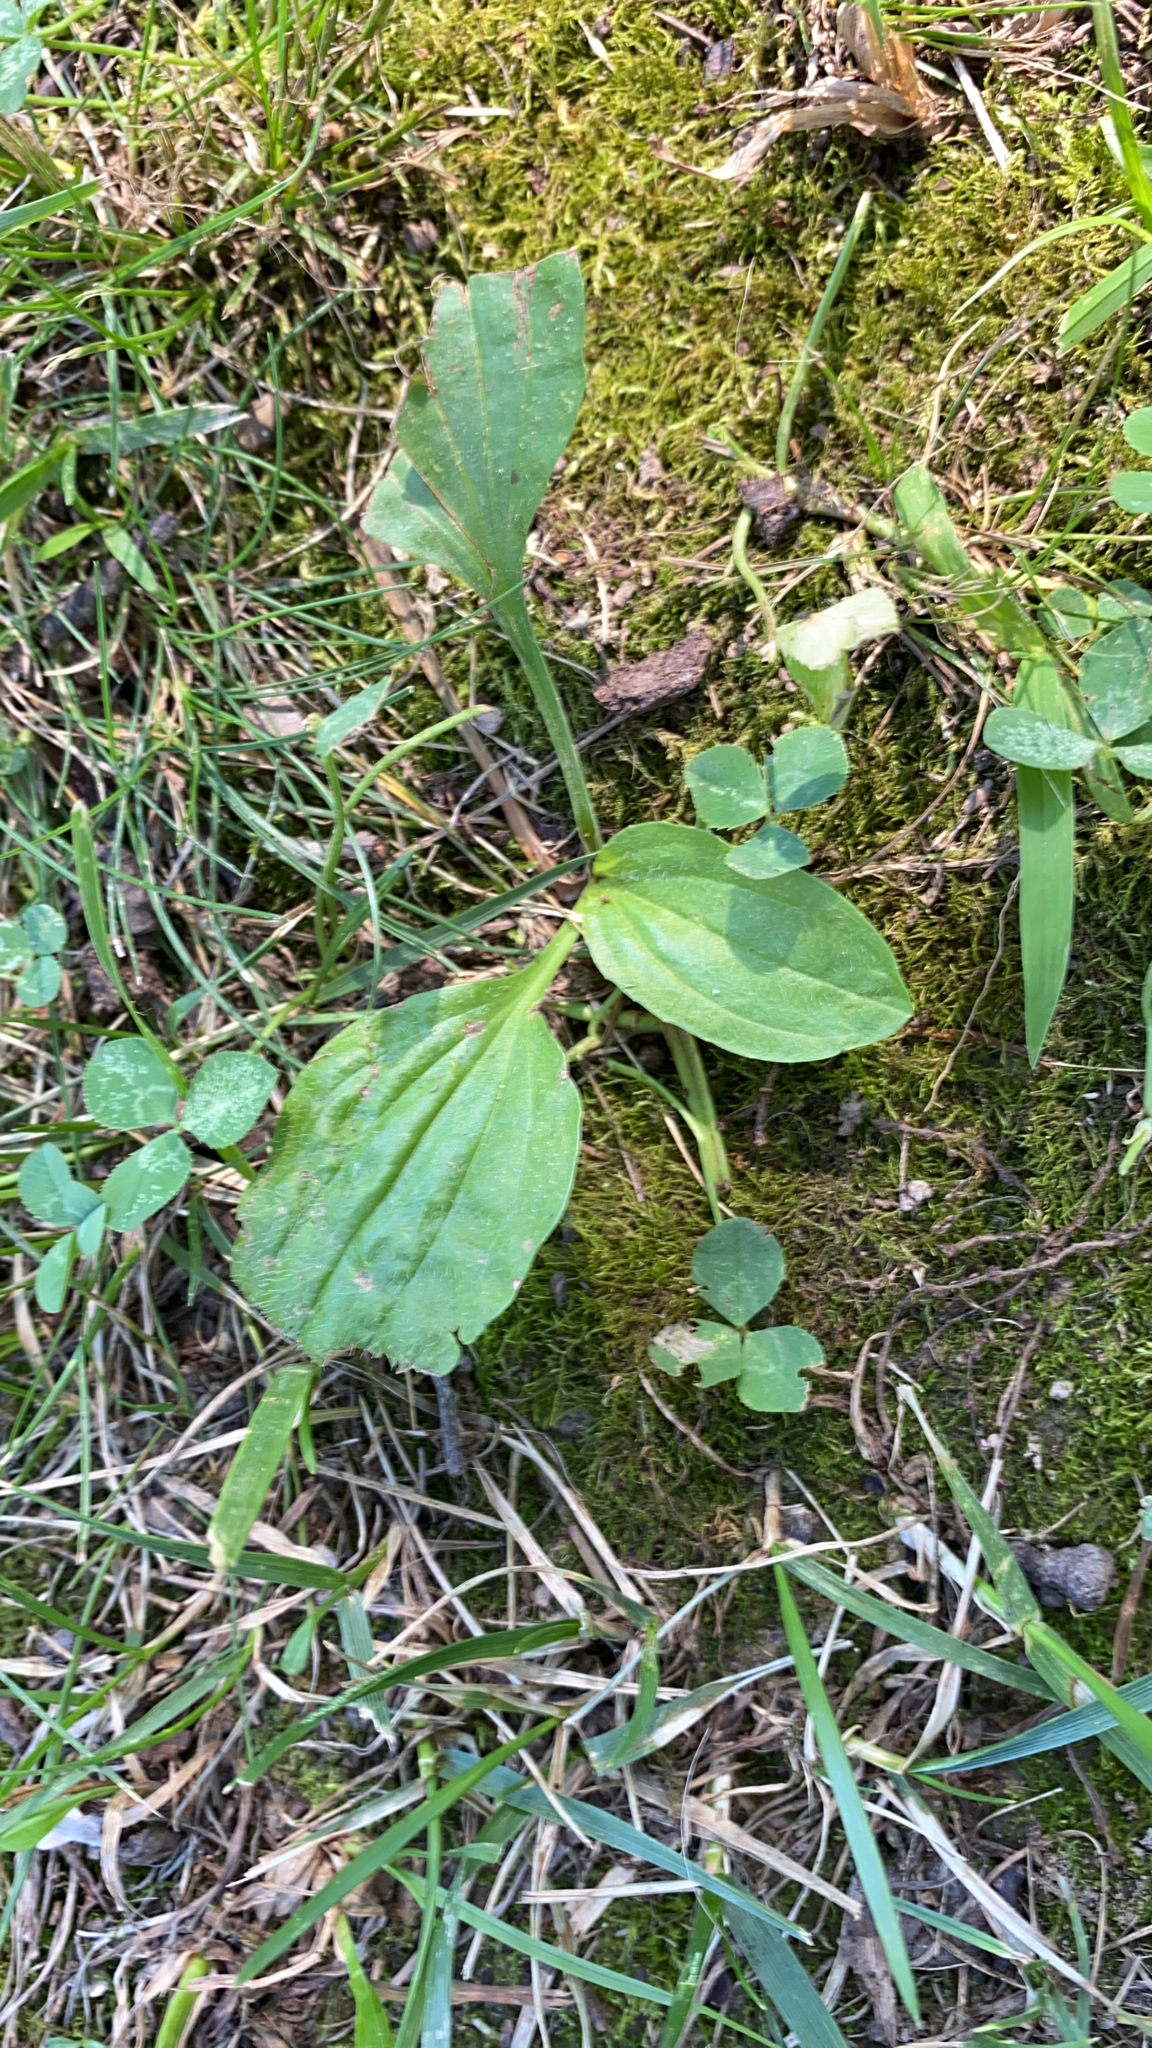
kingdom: Plantae
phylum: Tracheophyta
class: Magnoliopsida
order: Lamiales
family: Plantaginaceae
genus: Plantago
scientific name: Plantago major
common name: Common plantain
